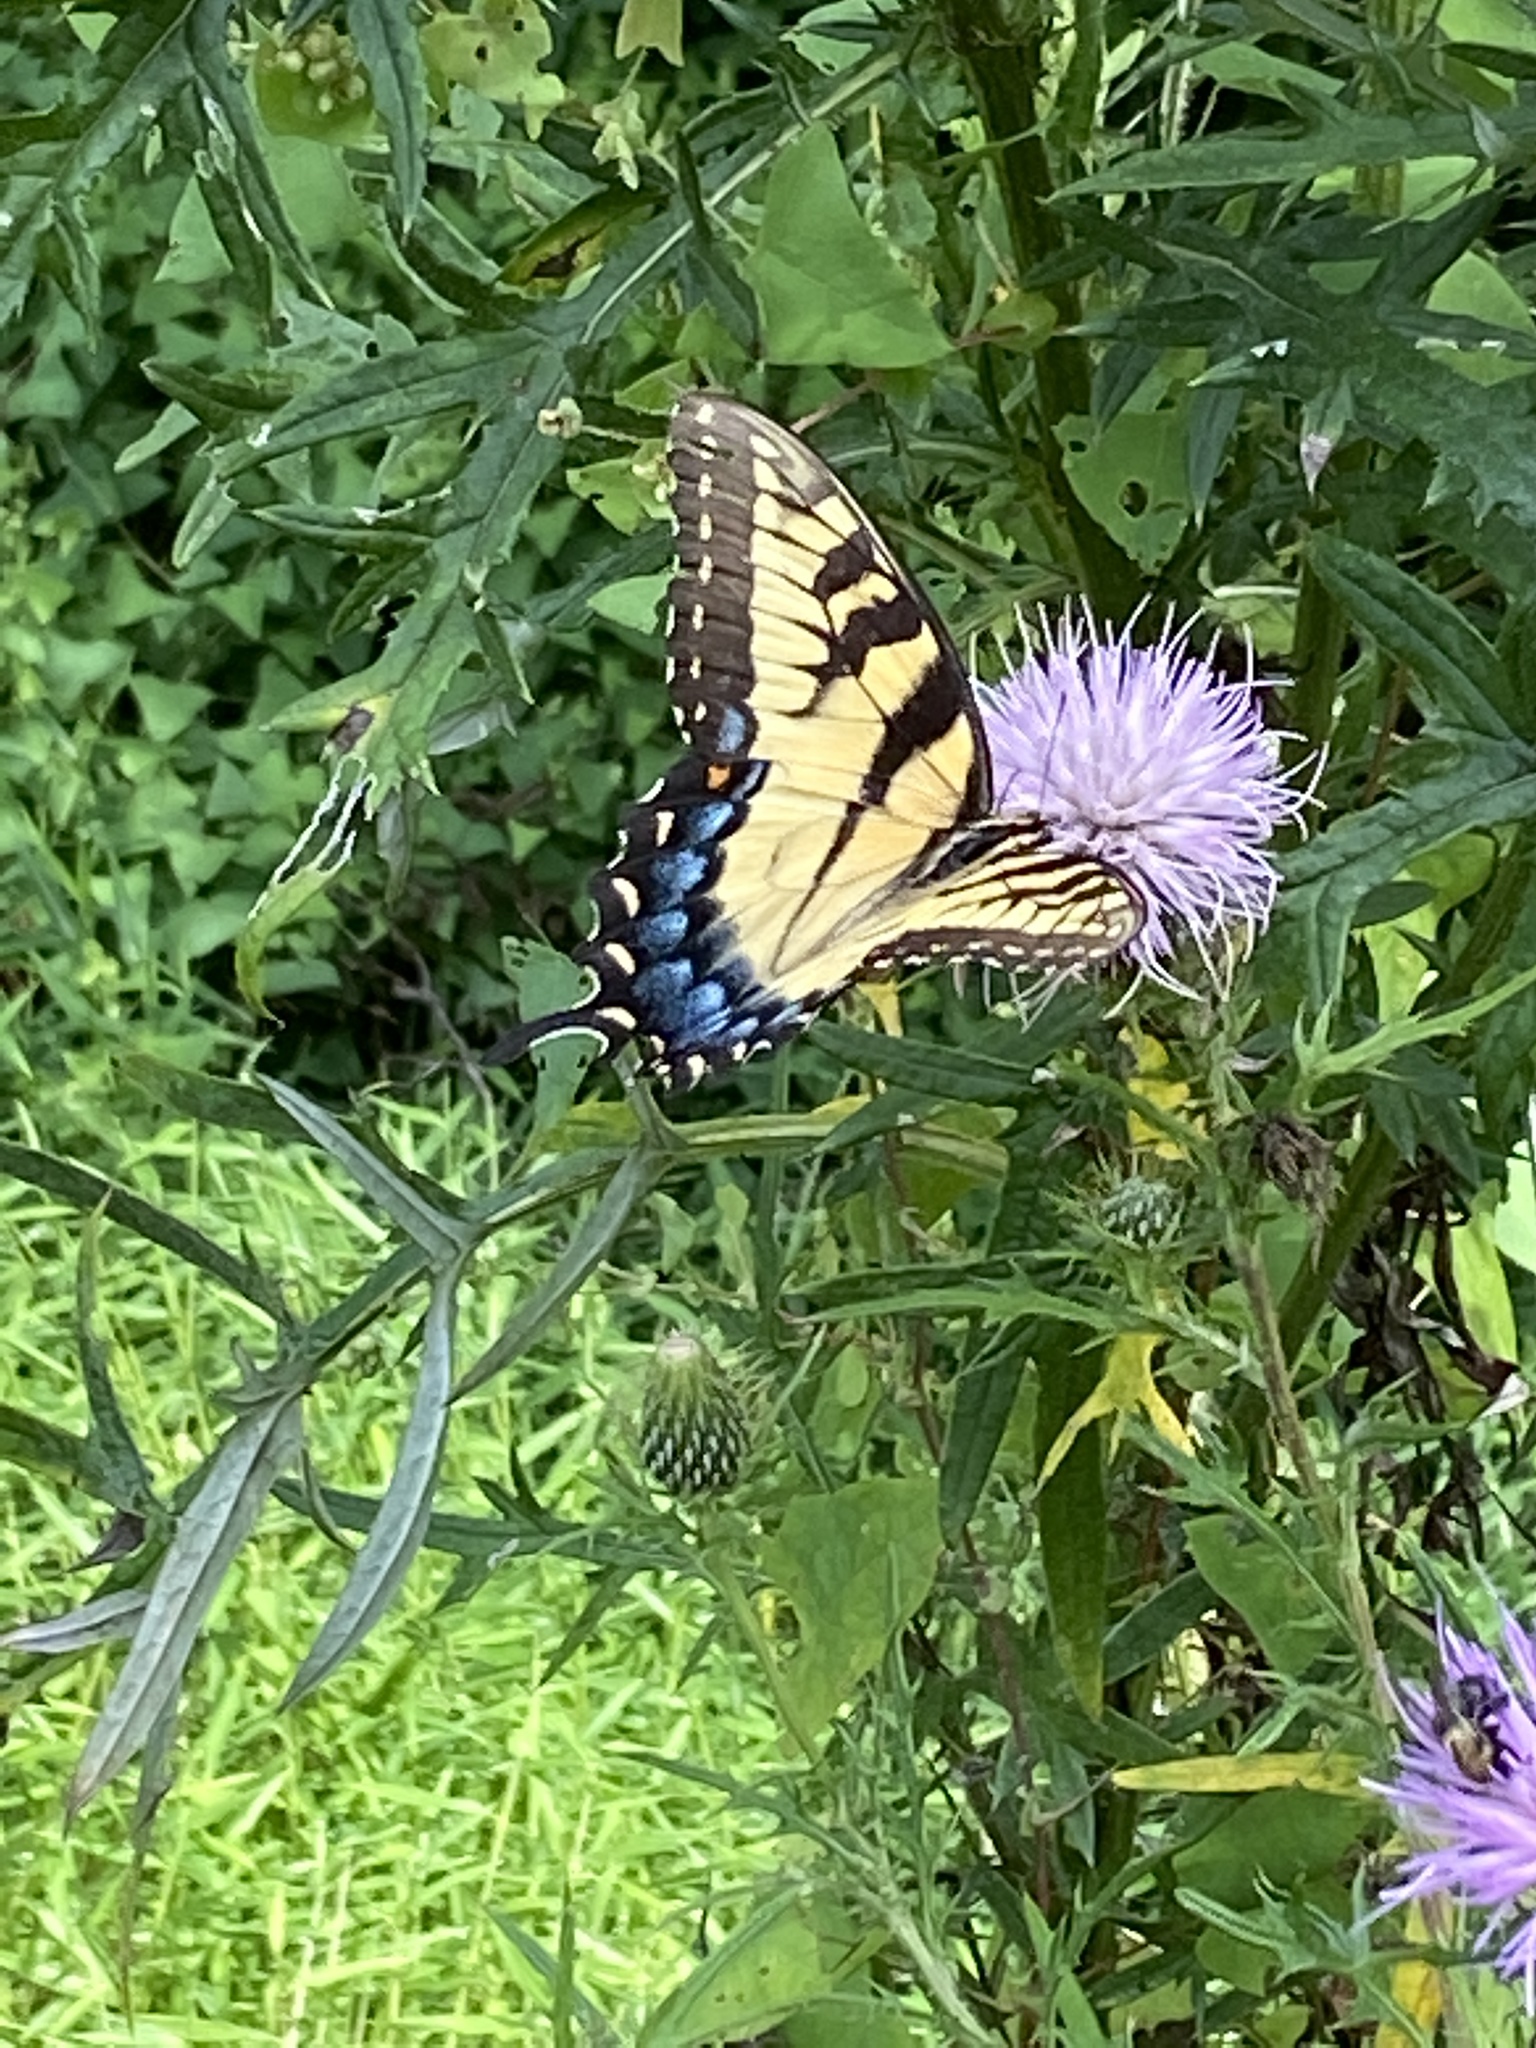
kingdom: Animalia
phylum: Arthropoda
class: Insecta
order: Lepidoptera
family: Papilionidae
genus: Papilio
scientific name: Papilio glaucus
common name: Tiger swallowtail
